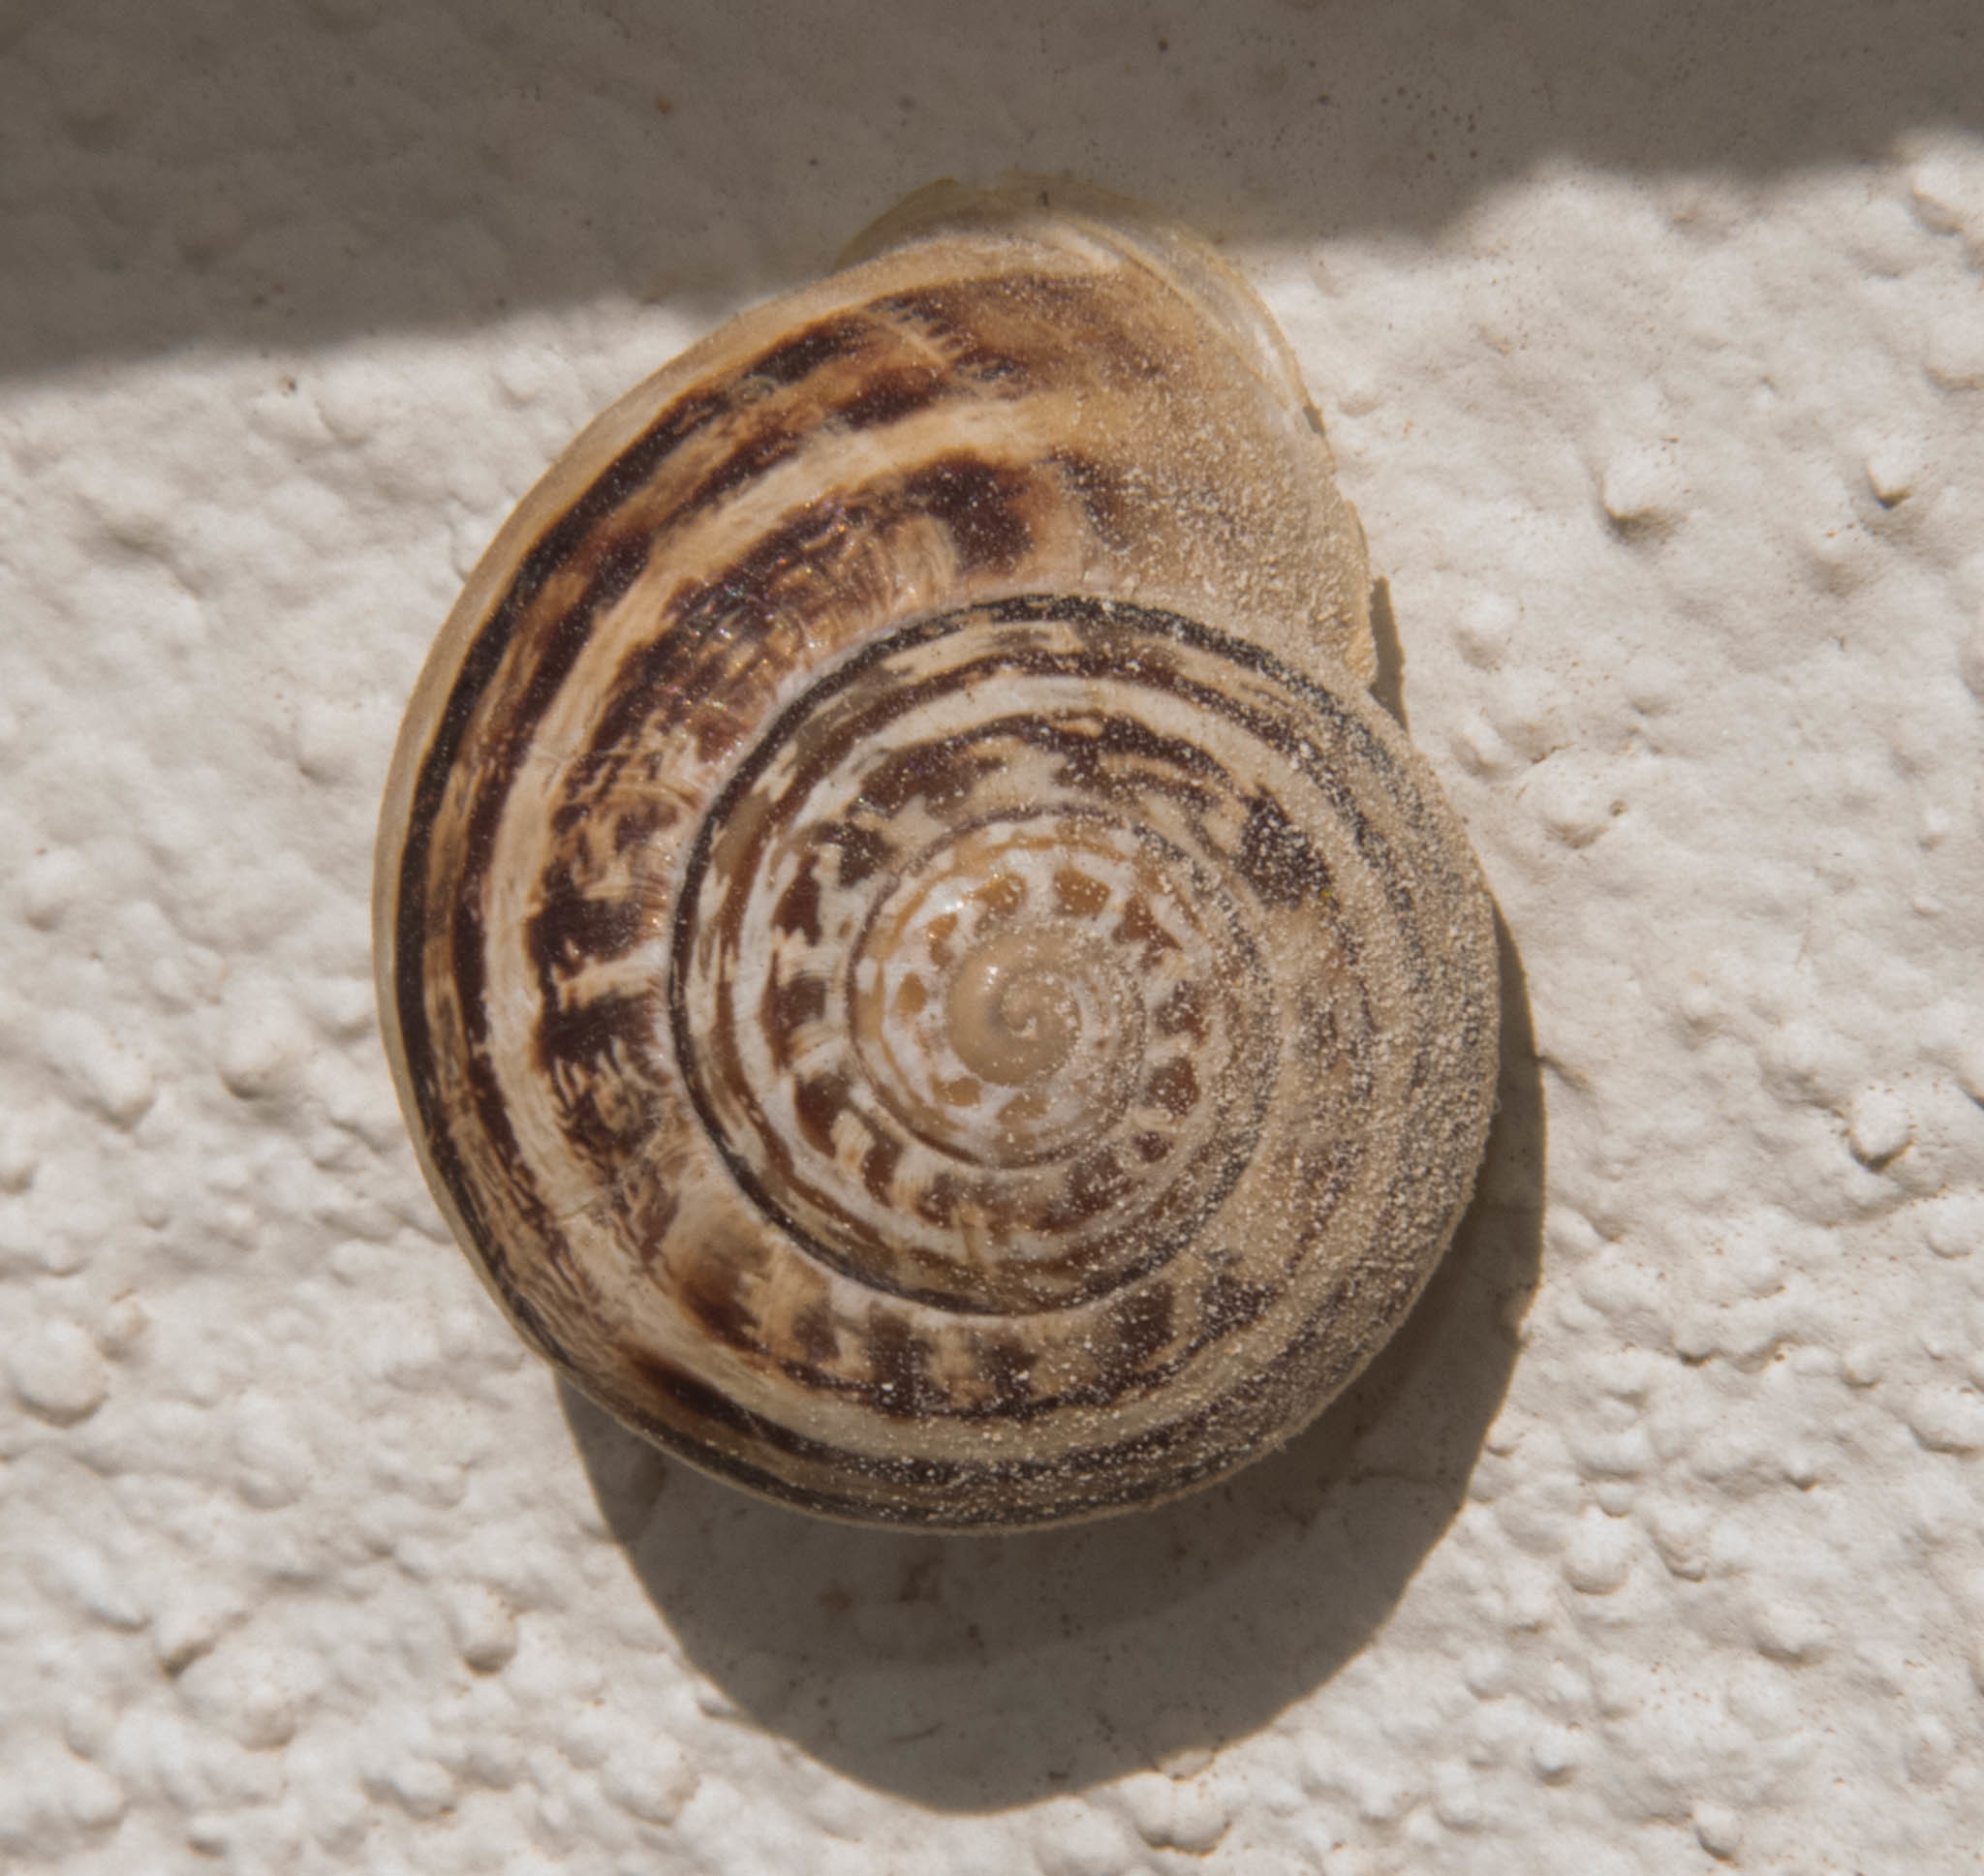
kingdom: Animalia
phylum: Mollusca
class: Gastropoda
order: Stylommatophora
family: Helicidae
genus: Theba
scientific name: Theba pisana
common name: White snail
